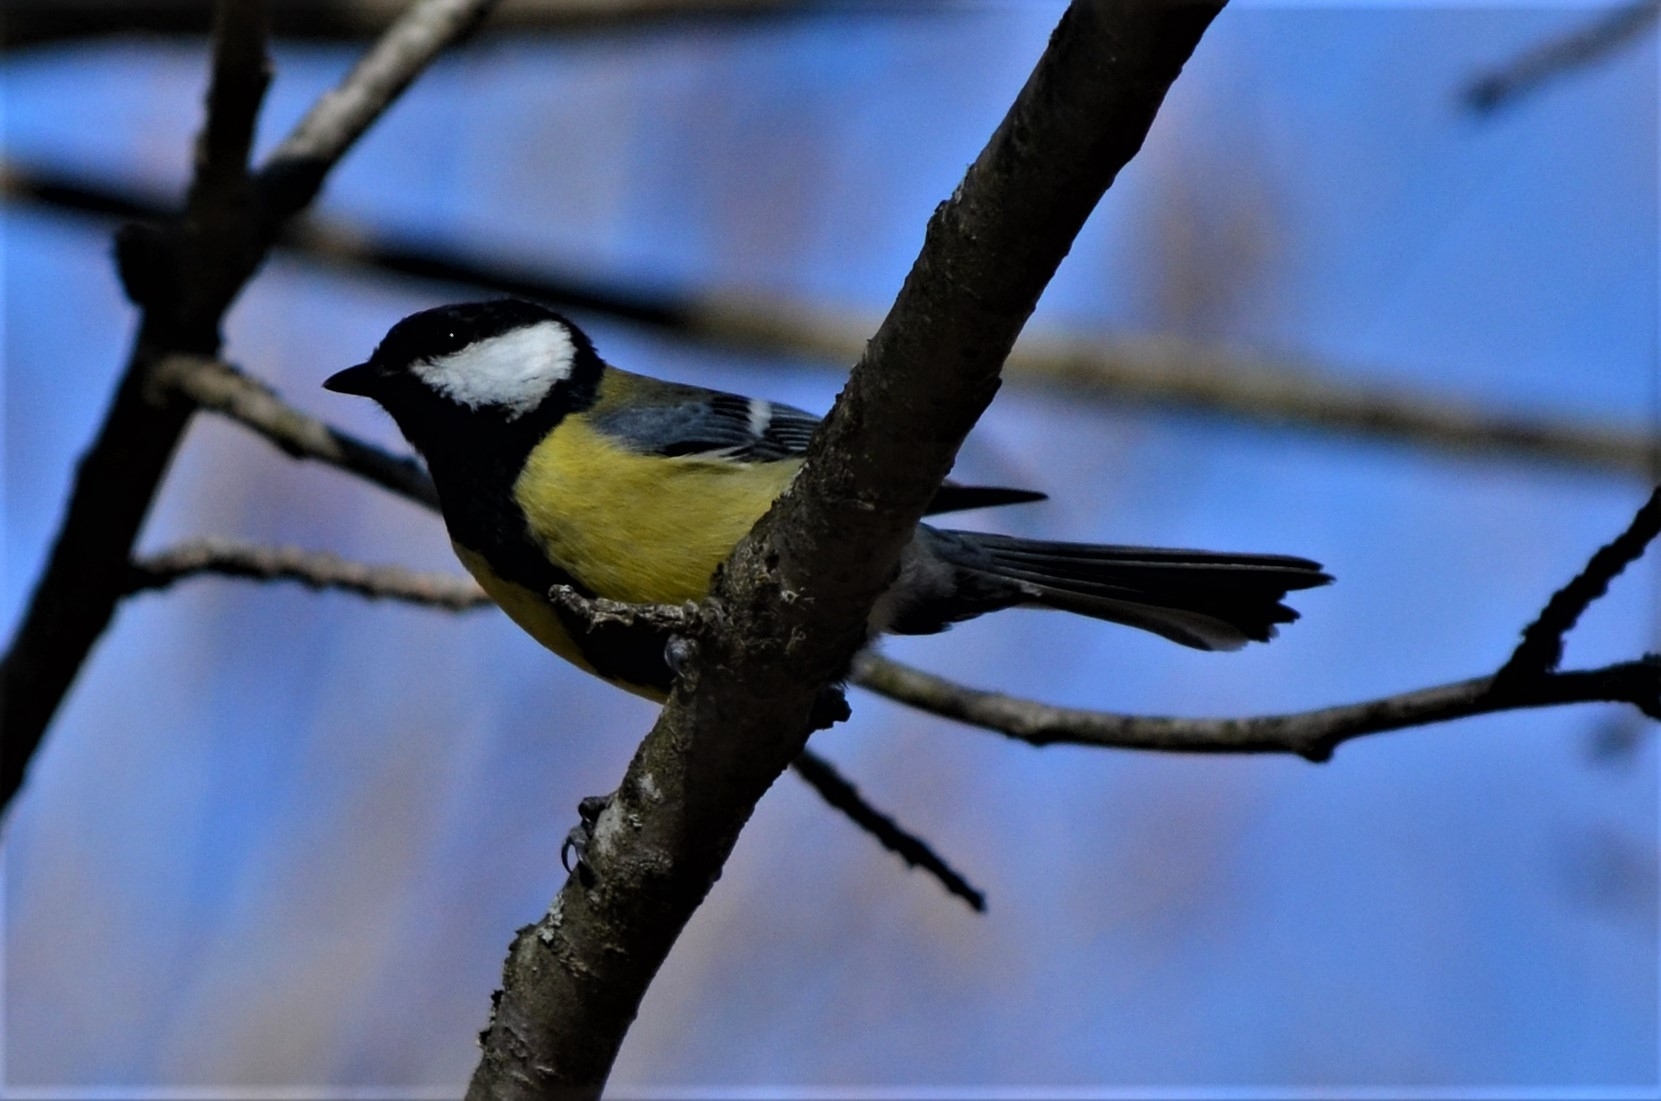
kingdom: Animalia
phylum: Chordata
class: Aves
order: Passeriformes
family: Paridae
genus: Parus
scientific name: Parus major
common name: Great tit
